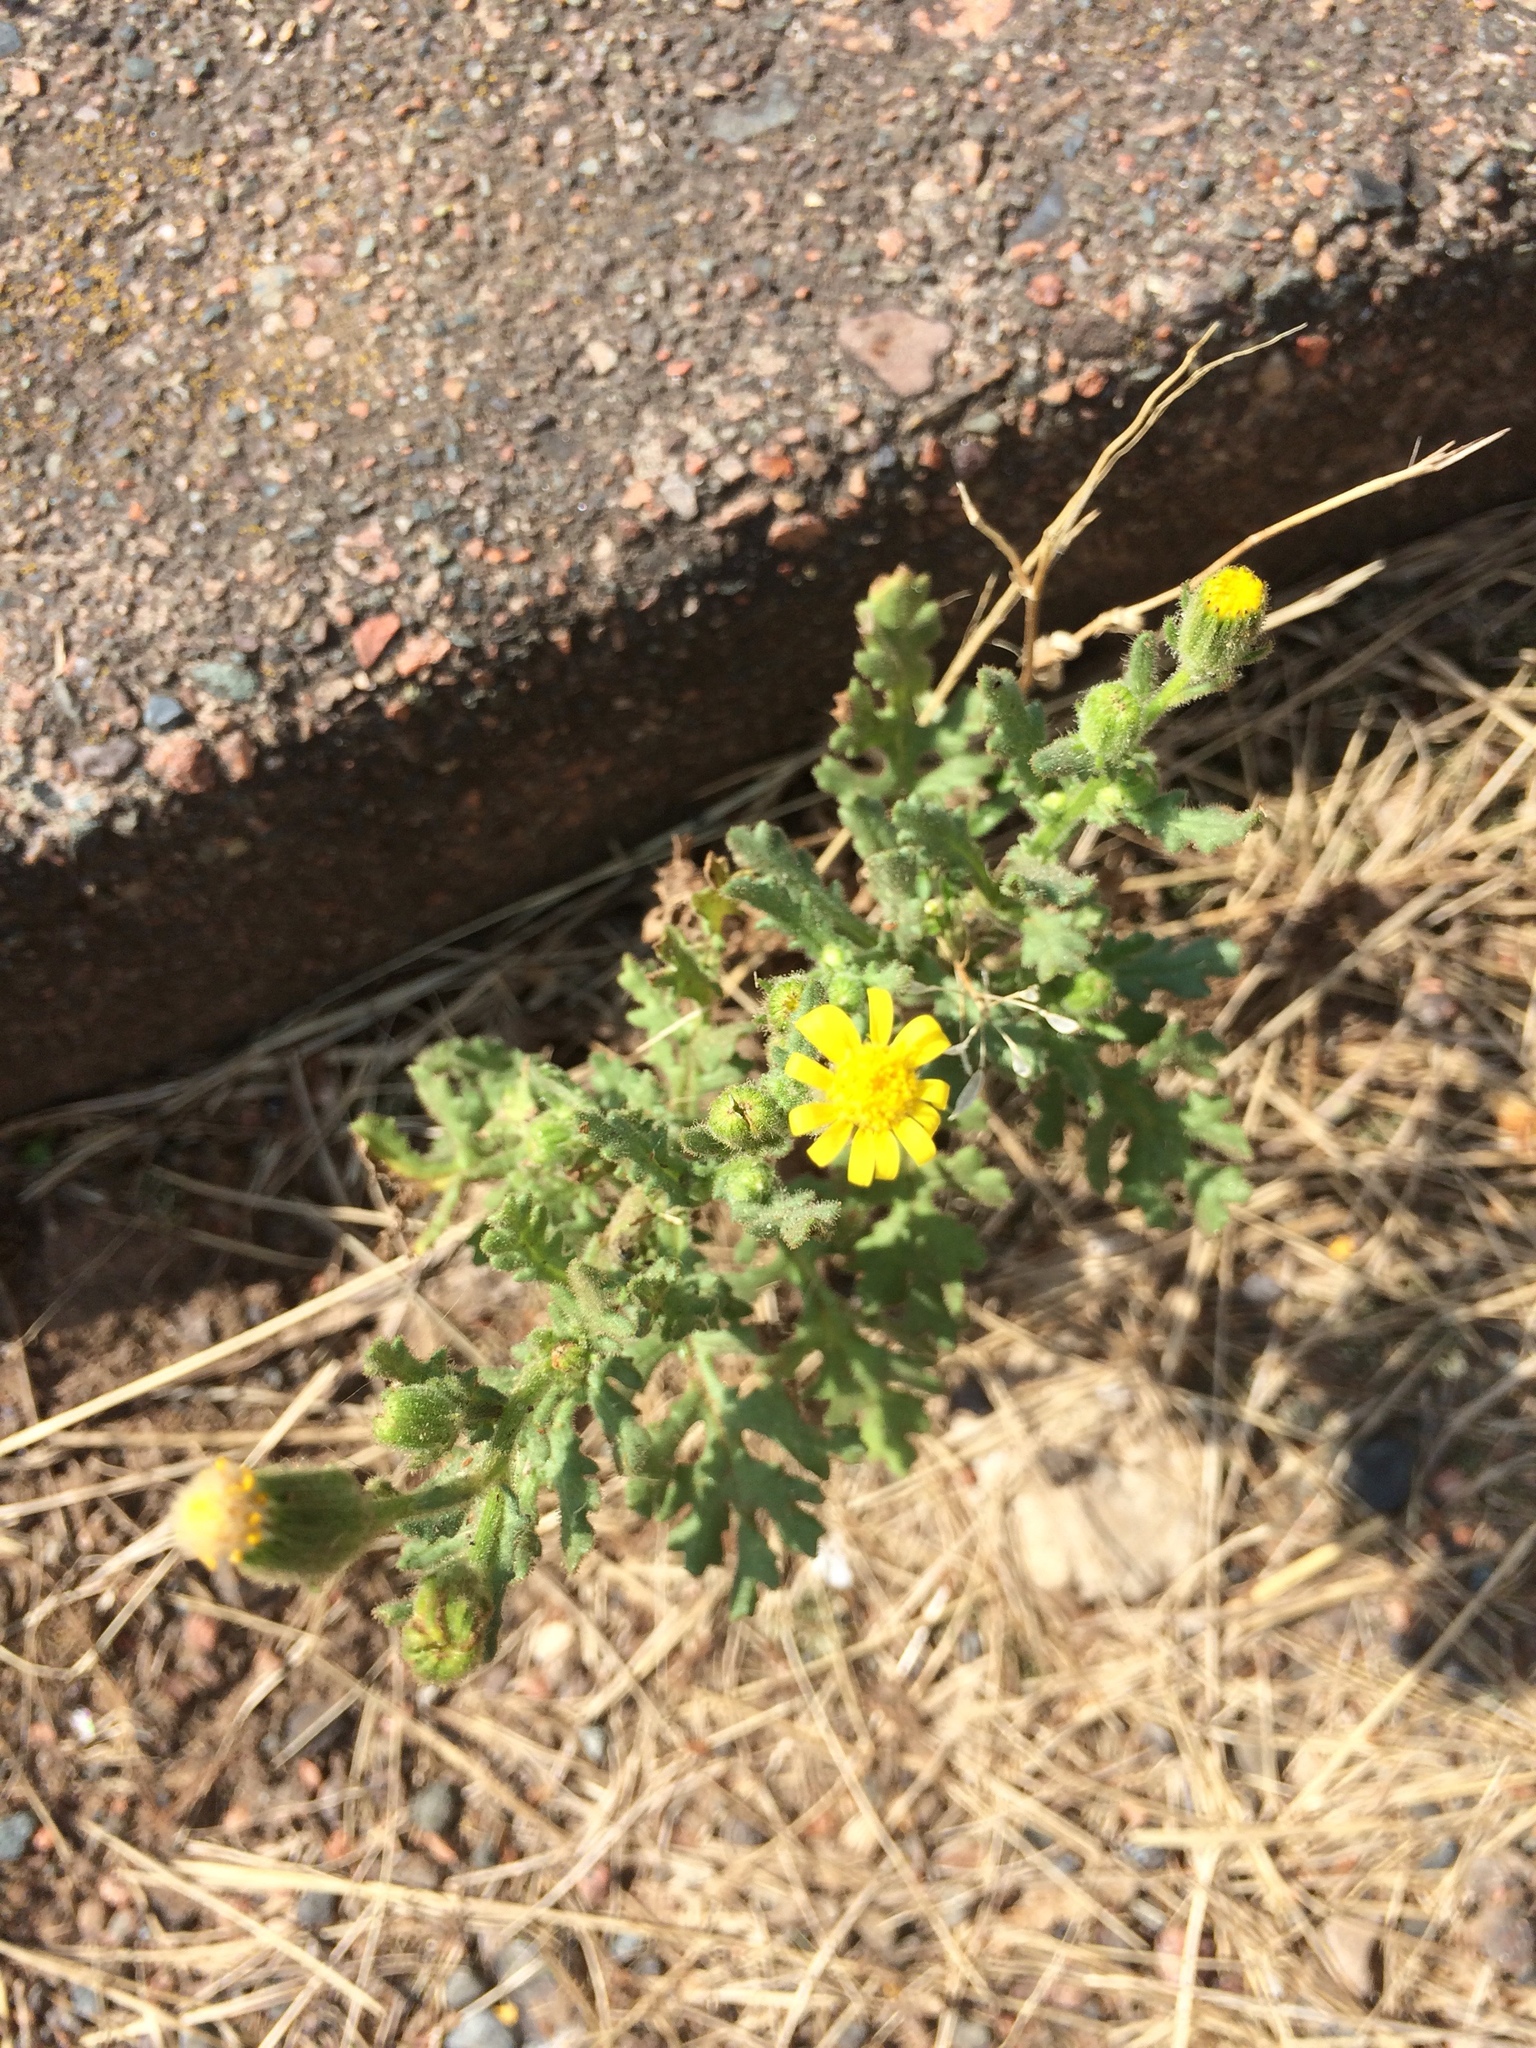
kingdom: Plantae
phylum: Tracheophyta
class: Magnoliopsida
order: Asterales
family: Asteraceae
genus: Senecio
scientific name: Senecio viscosus
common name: Sticky groundsel
